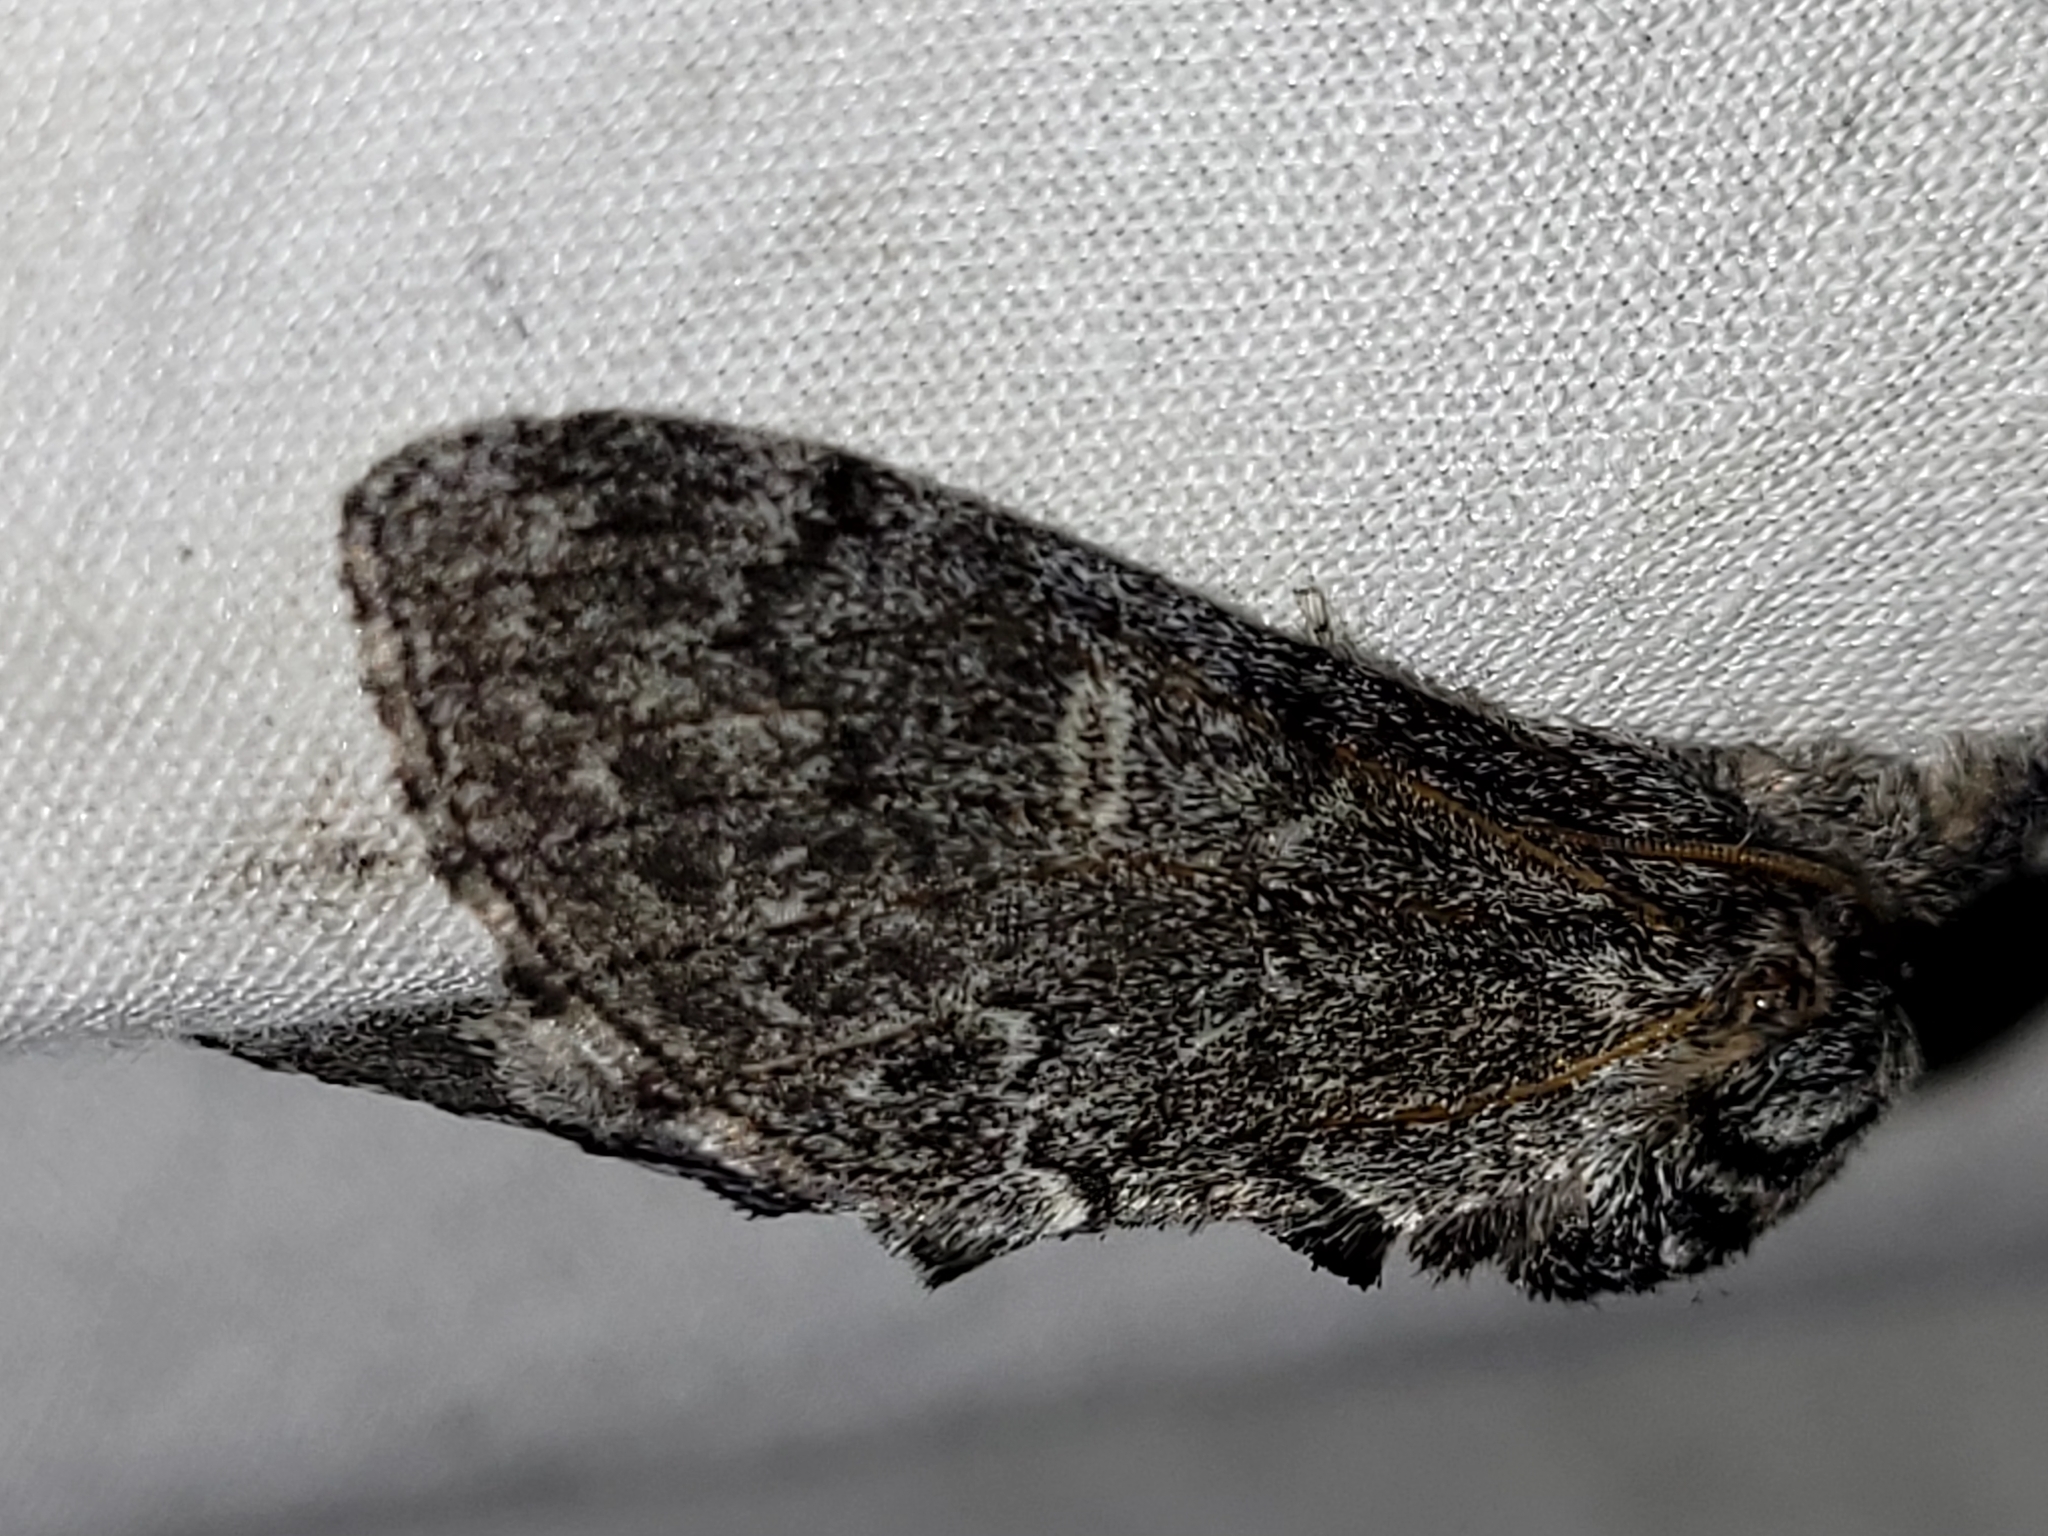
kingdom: Animalia
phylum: Arthropoda
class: Insecta
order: Lepidoptera
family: Notodontidae
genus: Notodonta
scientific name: Notodonta torva
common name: Large dark prominent
